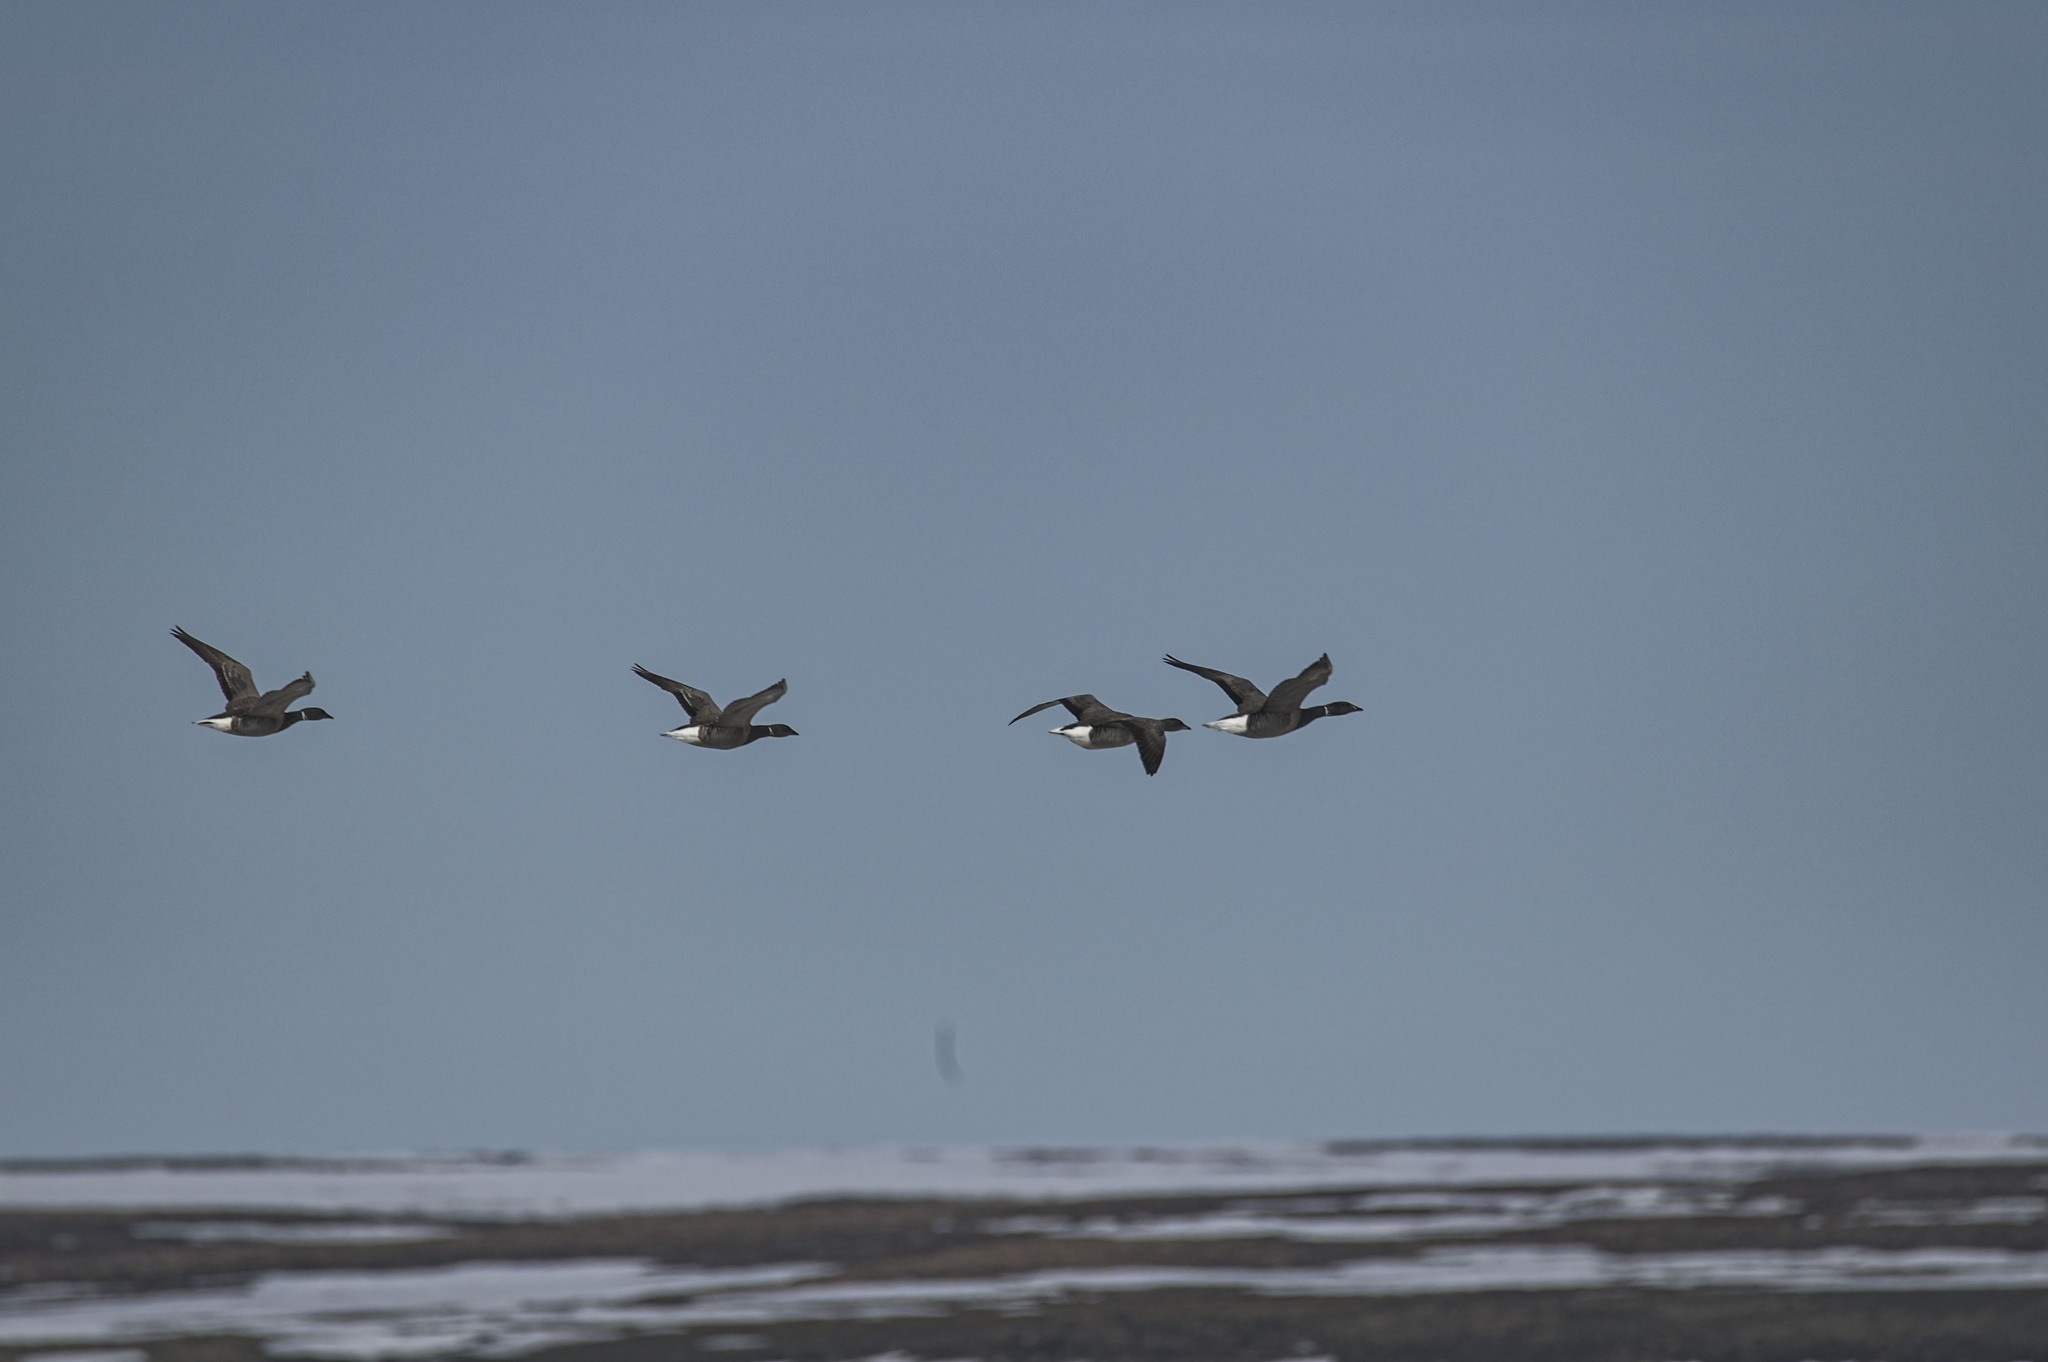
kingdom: Animalia
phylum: Chordata
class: Aves
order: Anseriformes
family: Anatidae
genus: Branta
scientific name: Branta bernicla
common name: Brant goose
